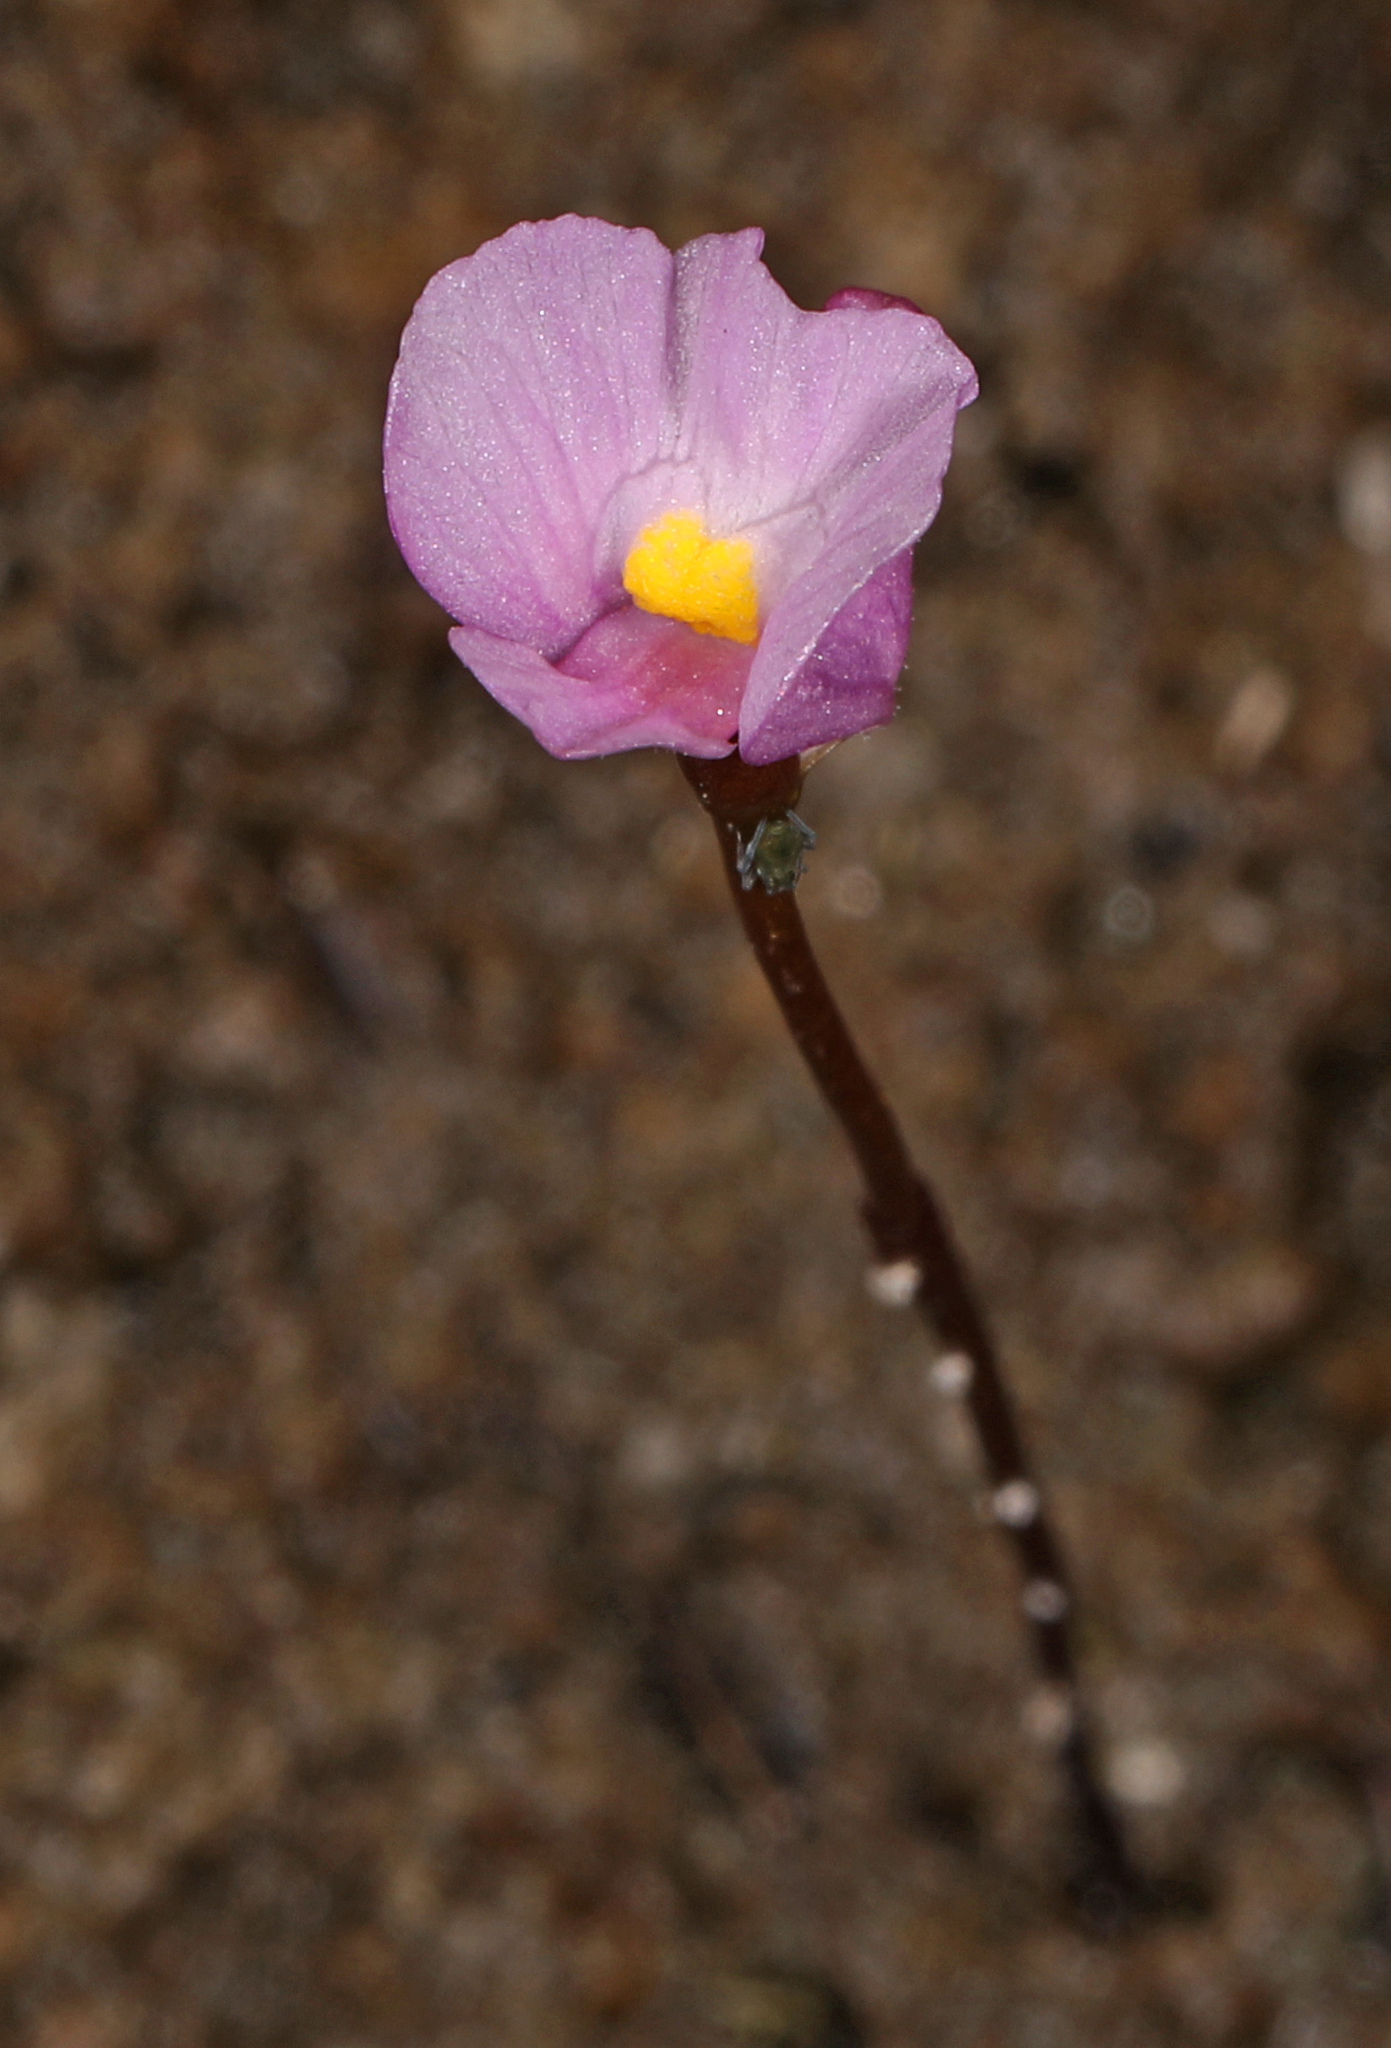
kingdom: Plantae
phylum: Tracheophyta
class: Magnoliopsida
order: Lamiales
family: Lentibulariaceae
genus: Utricularia
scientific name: Utricularia resupinata
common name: Northeastern bladderwort
